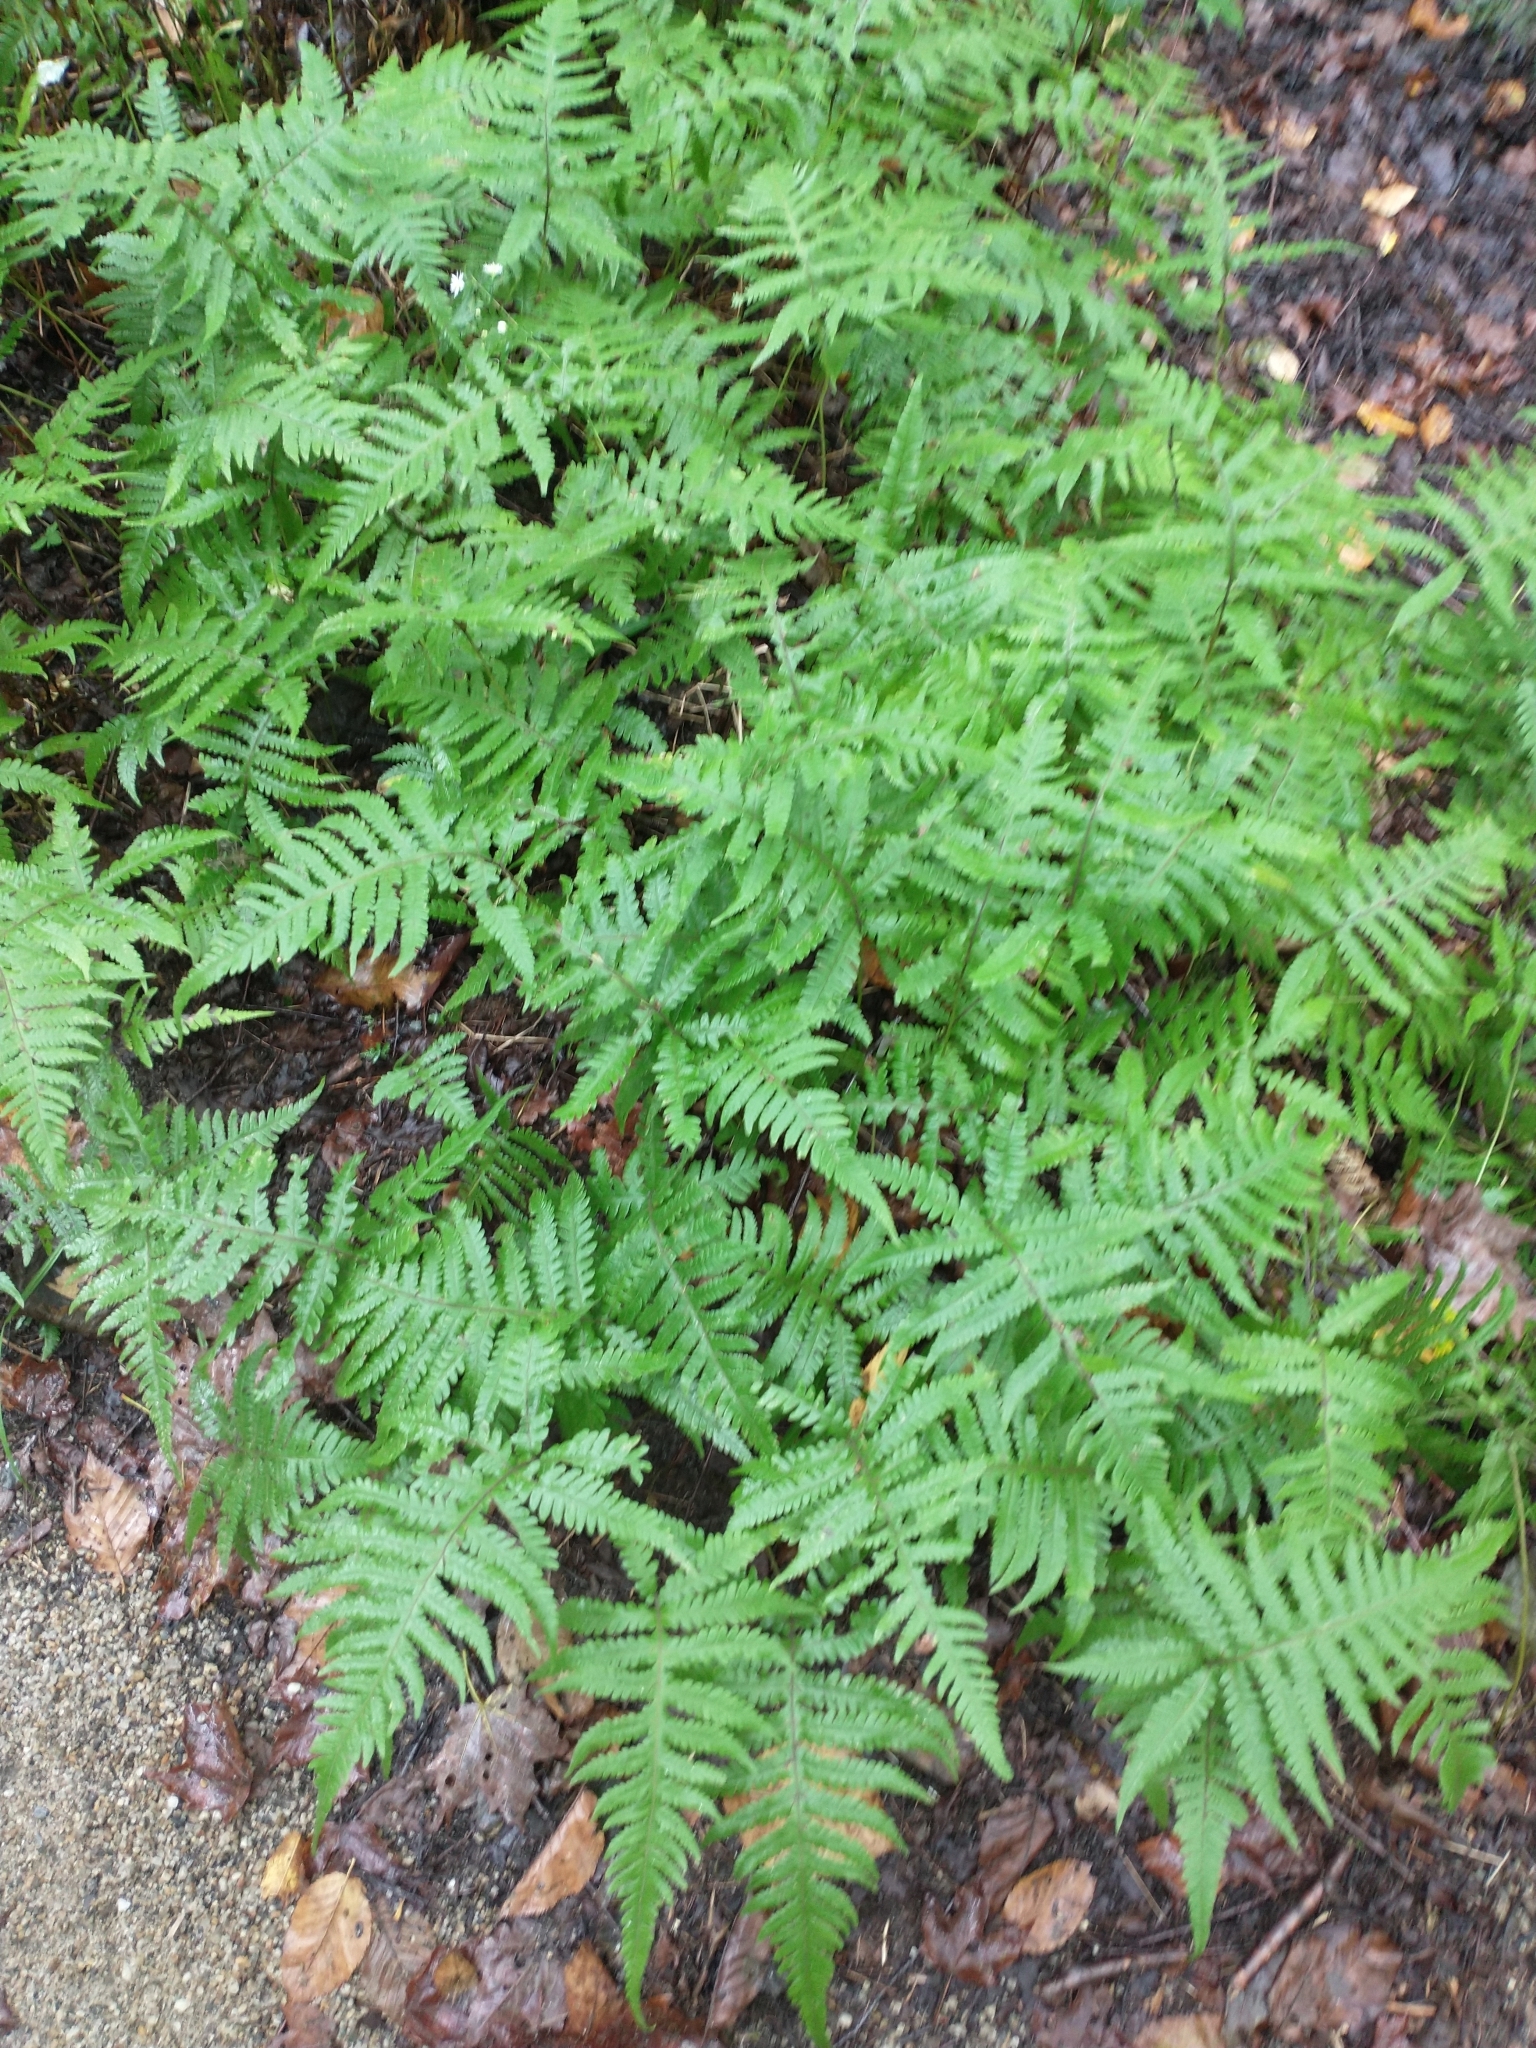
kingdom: Plantae
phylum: Tracheophyta
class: Polypodiopsida
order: Polypodiales
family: Thelypteridaceae
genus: Phegopteris
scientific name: Phegopteris excelsior
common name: Tall beech fern
